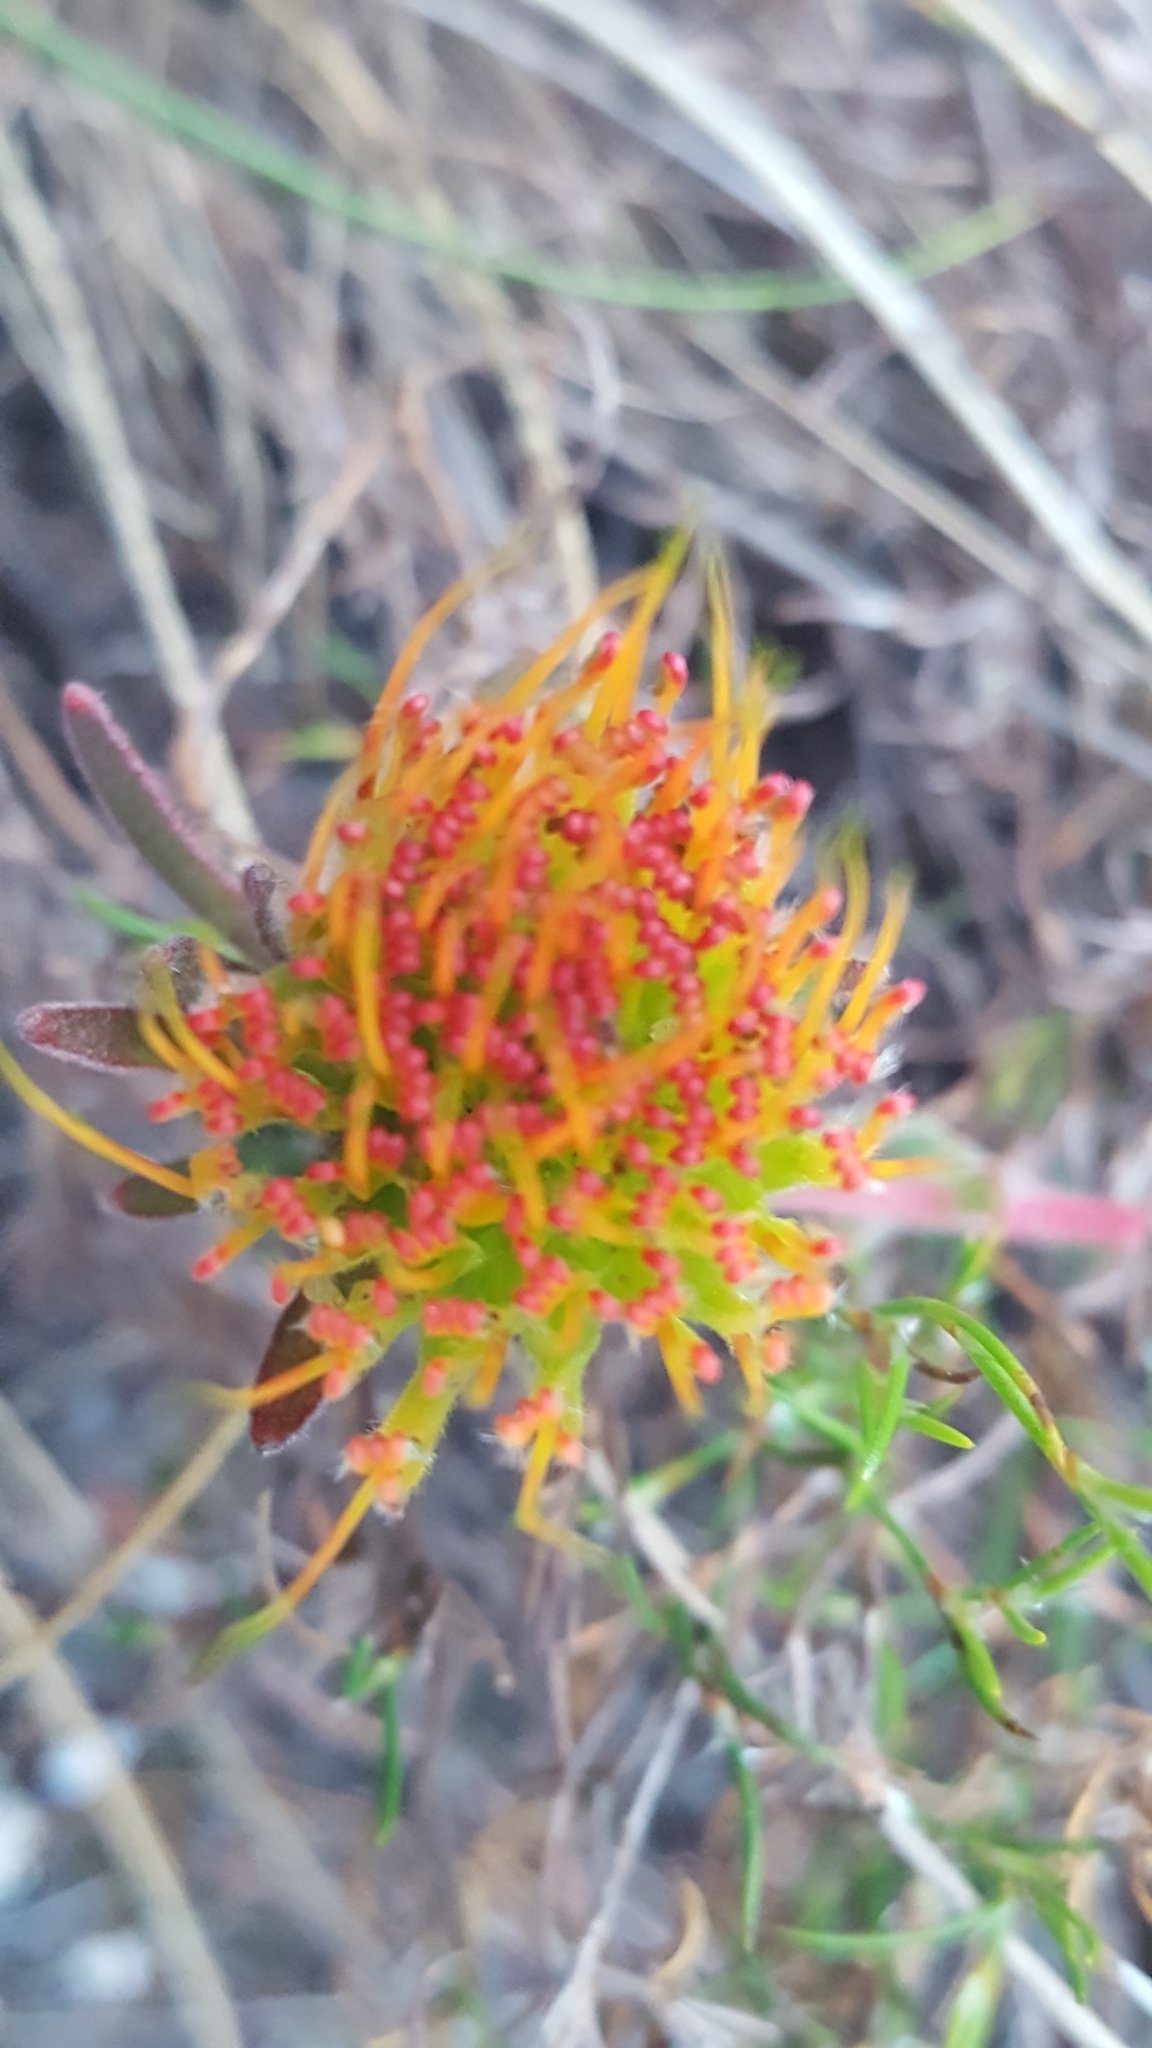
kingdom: Plantae
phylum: Tracheophyta
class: Magnoliopsida
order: Proteales
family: Proteaceae
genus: Leucospermum
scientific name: Leucospermum gracile
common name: Hermanus pincushion
